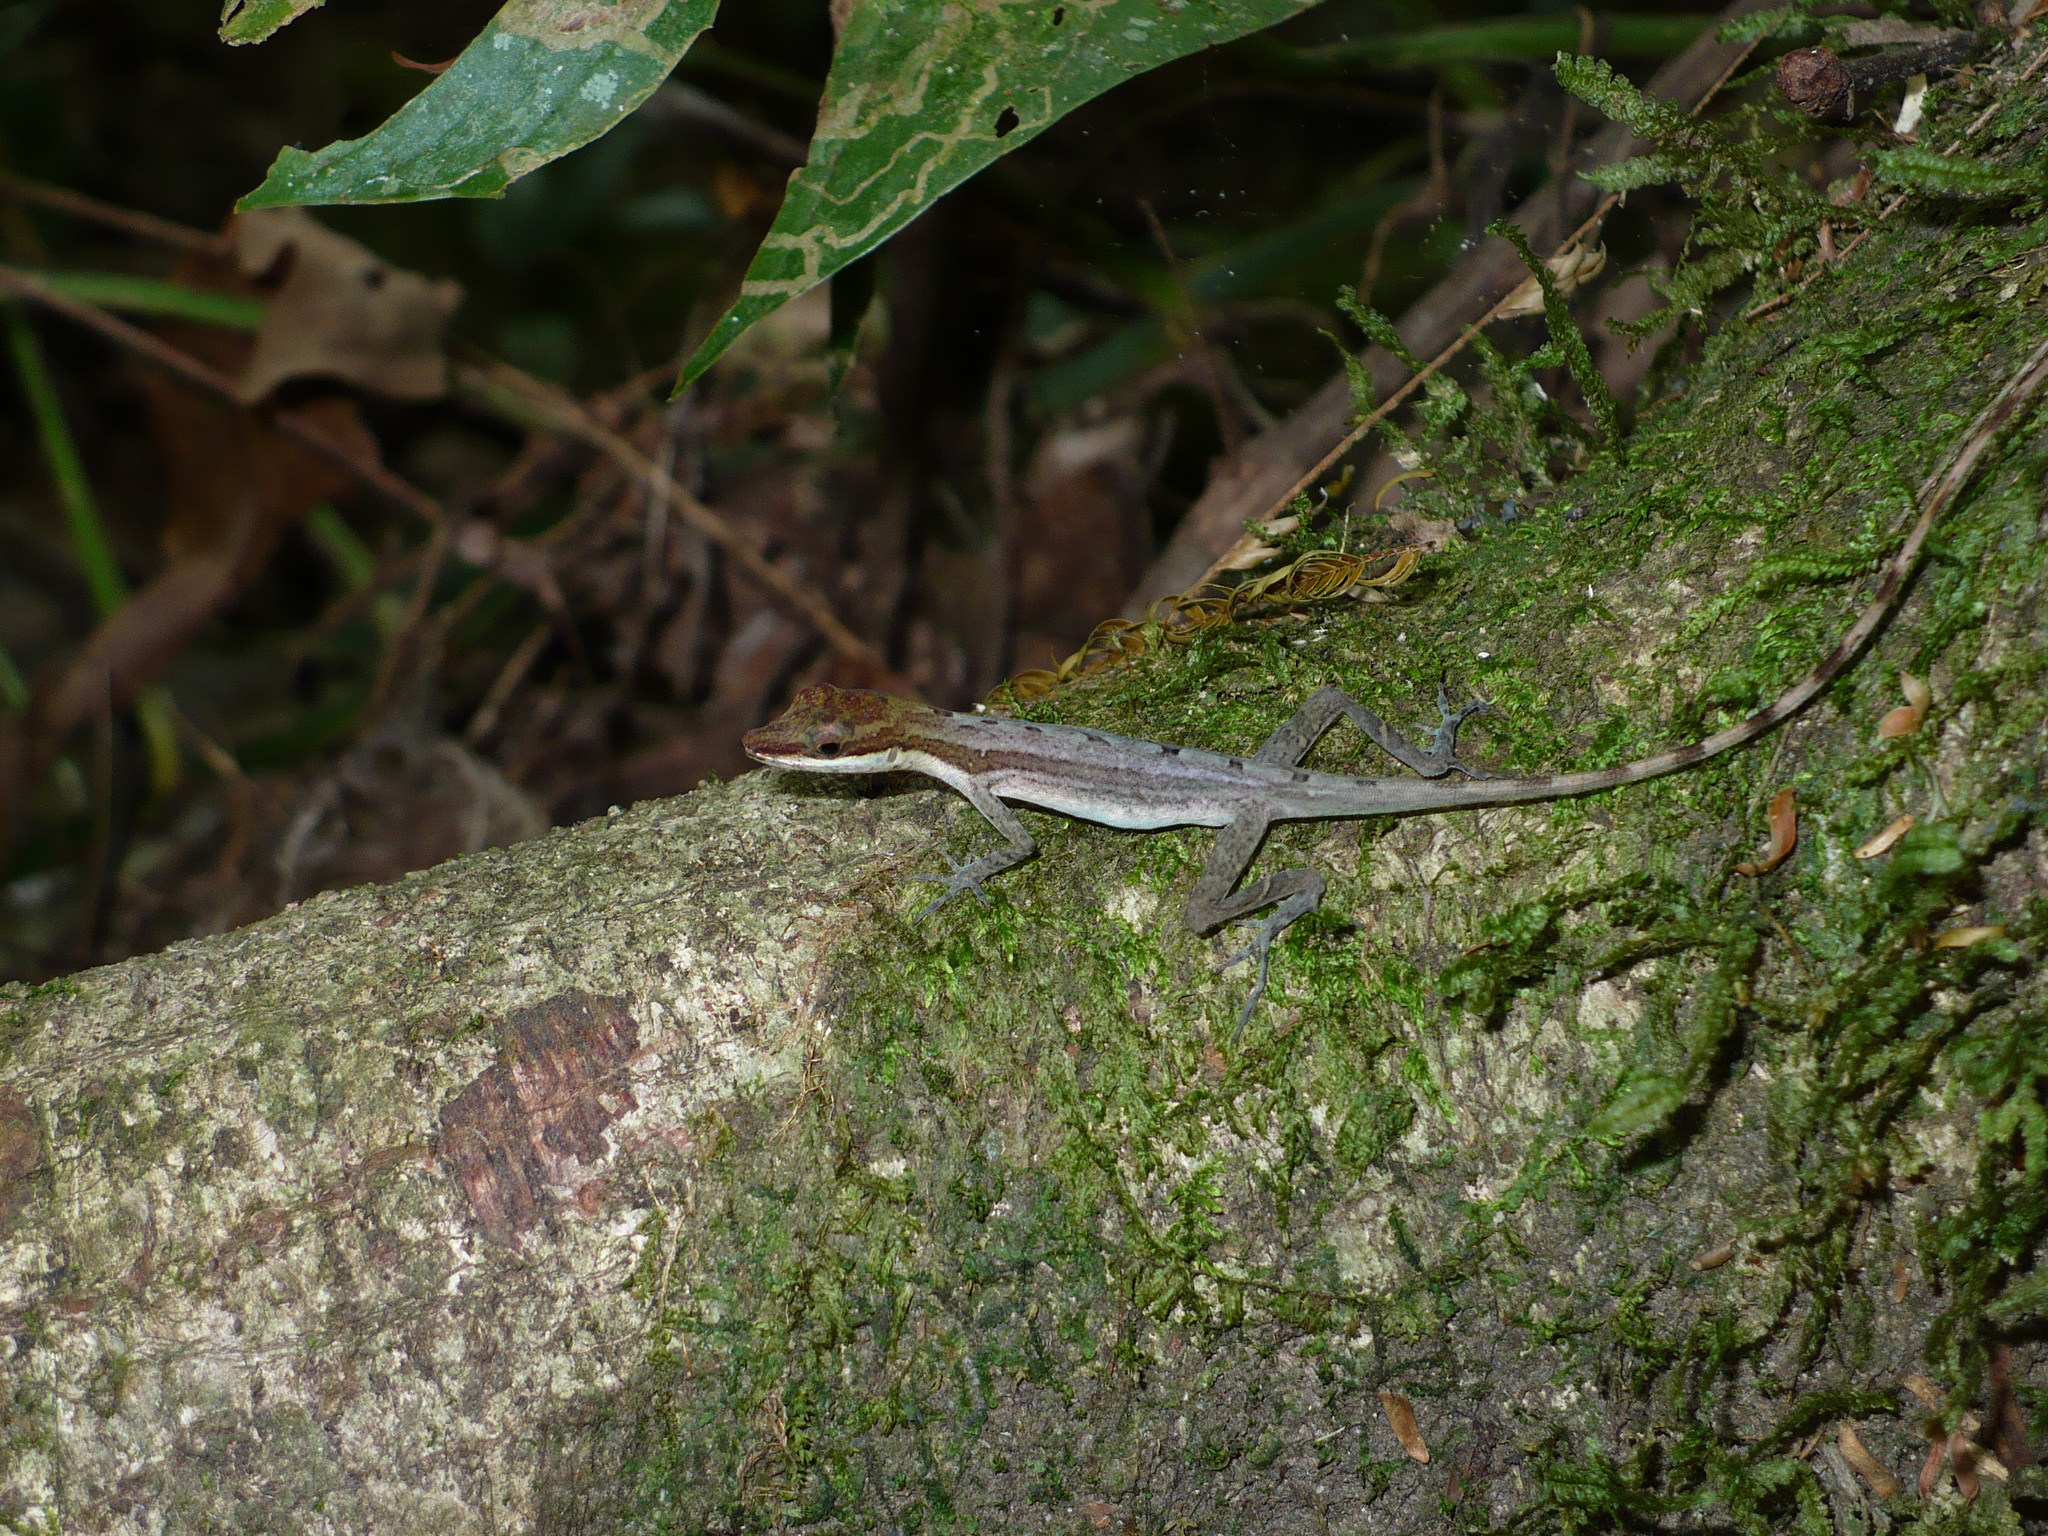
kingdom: Animalia
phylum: Chordata
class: Squamata
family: Dactyloidae
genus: Anolis
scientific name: Anolis limifrons
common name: Border anole
